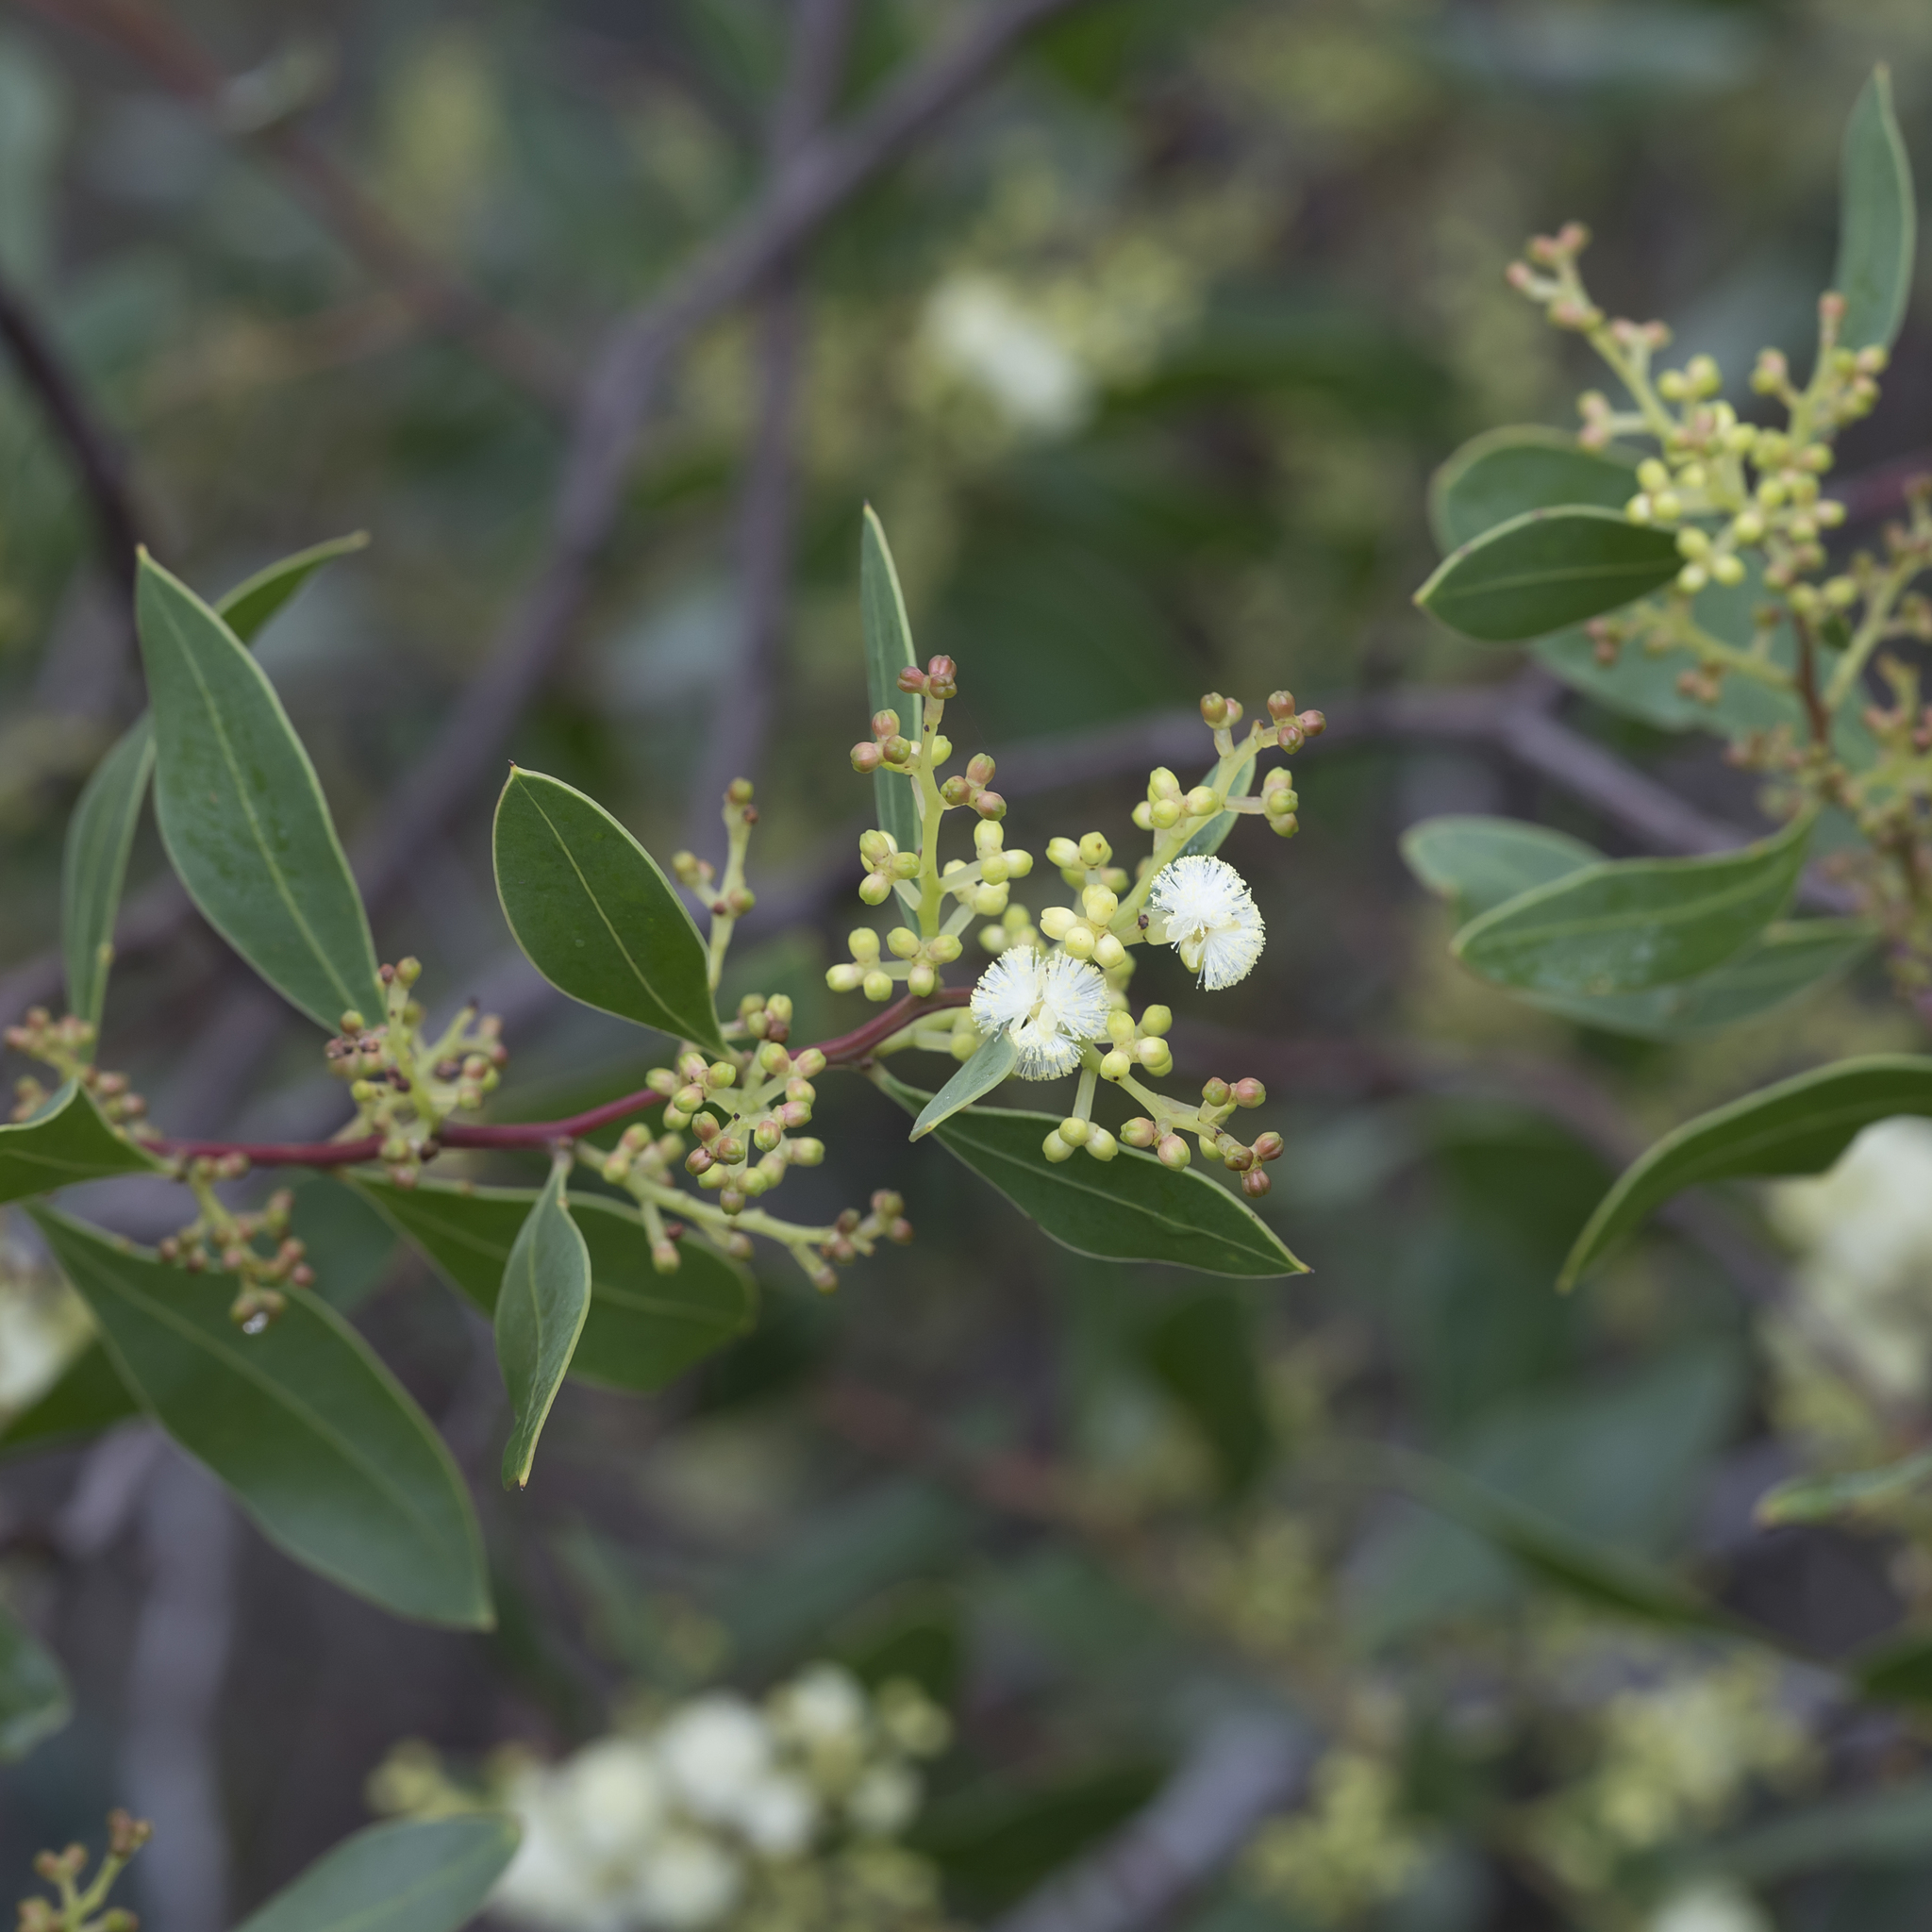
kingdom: Plantae
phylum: Tracheophyta
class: Magnoliopsida
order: Fabales
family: Fabaceae
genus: Acacia
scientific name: Acacia myrtifolia
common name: Myrtle wattle
